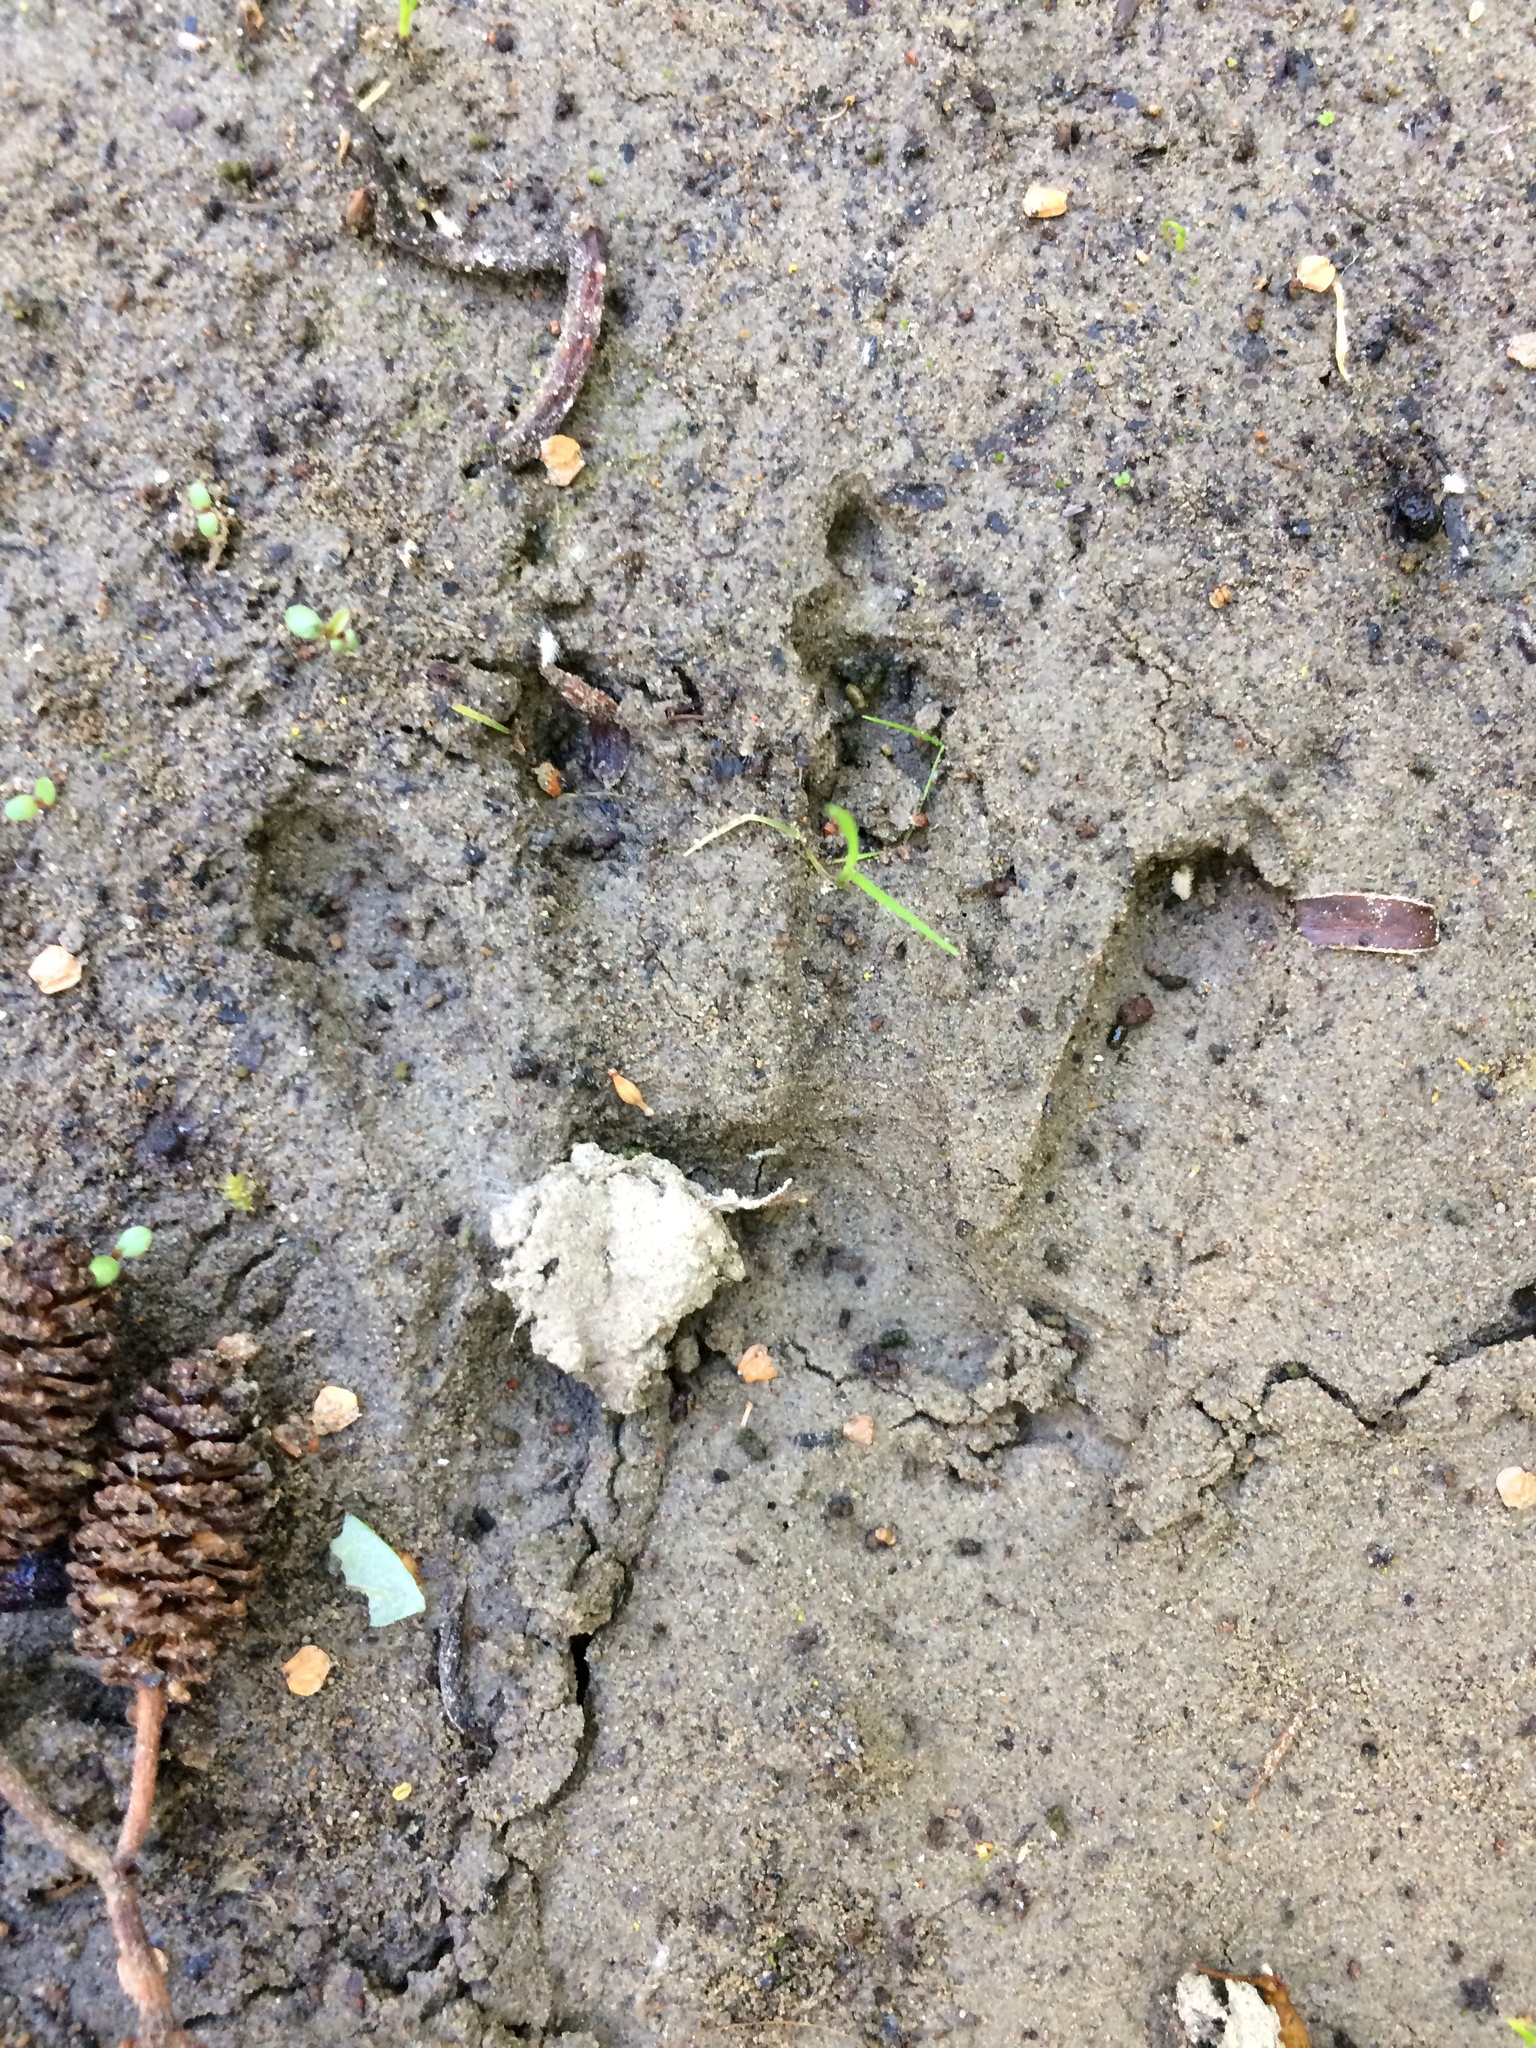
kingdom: Animalia
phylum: Chordata
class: Mammalia
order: Carnivora
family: Procyonidae
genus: Procyon
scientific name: Procyon lotor
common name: Raccoon
